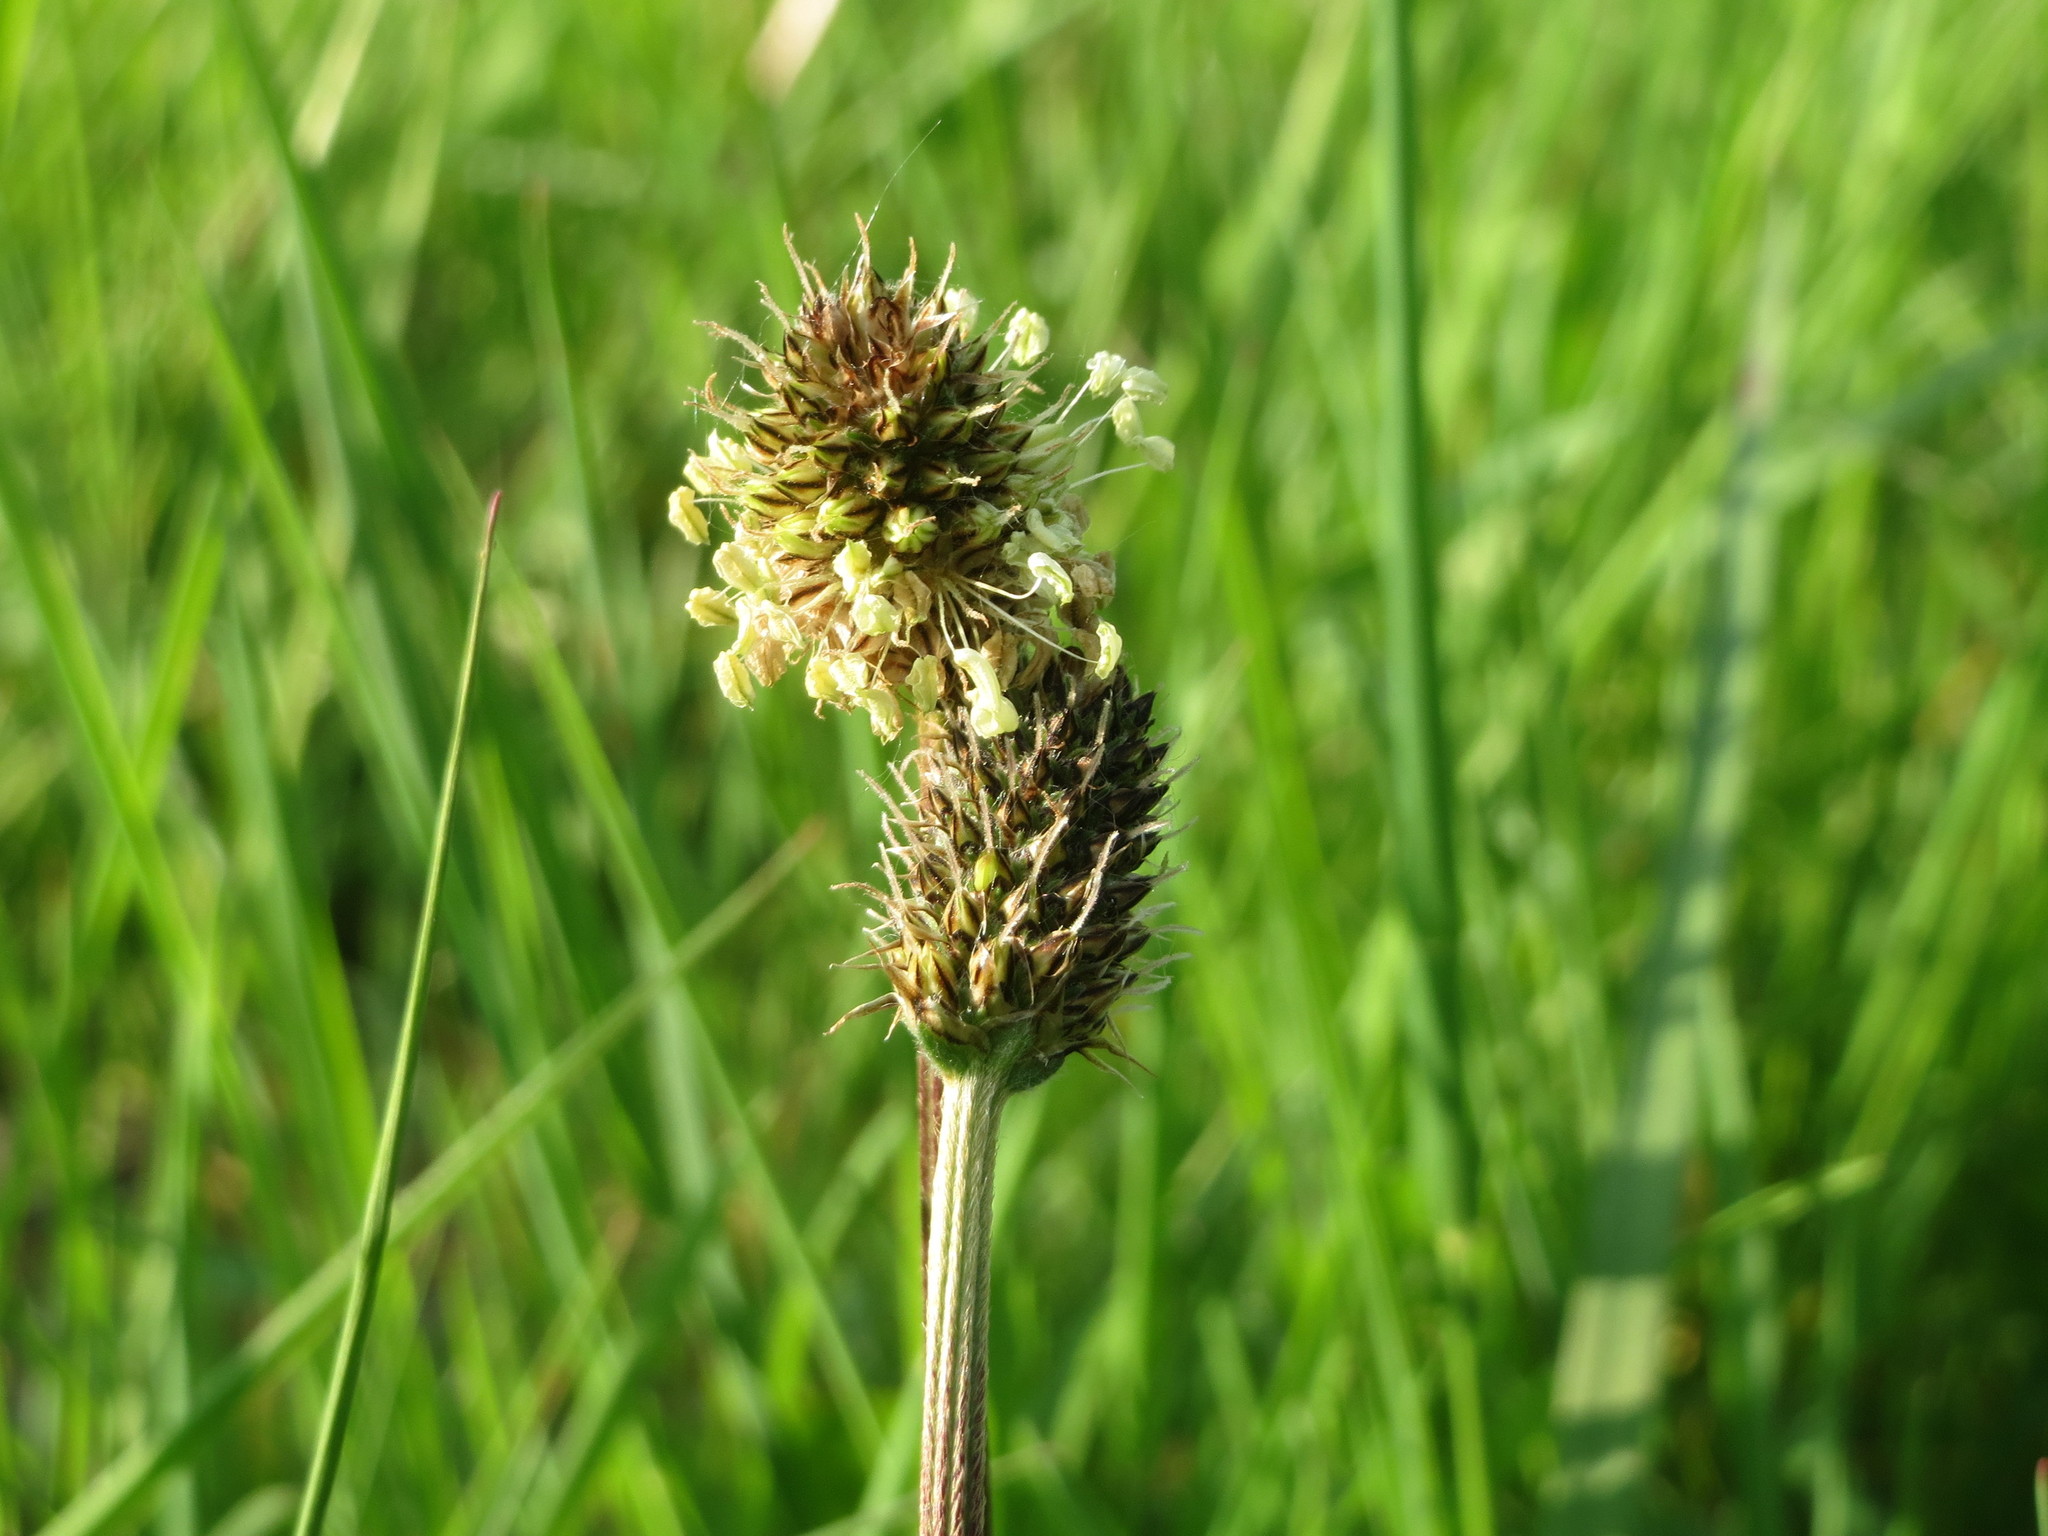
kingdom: Plantae
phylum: Tracheophyta
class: Magnoliopsida
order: Lamiales
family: Plantaginaceae
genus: Plantago
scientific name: Plantago lanceolata
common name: Ribwort plantain
